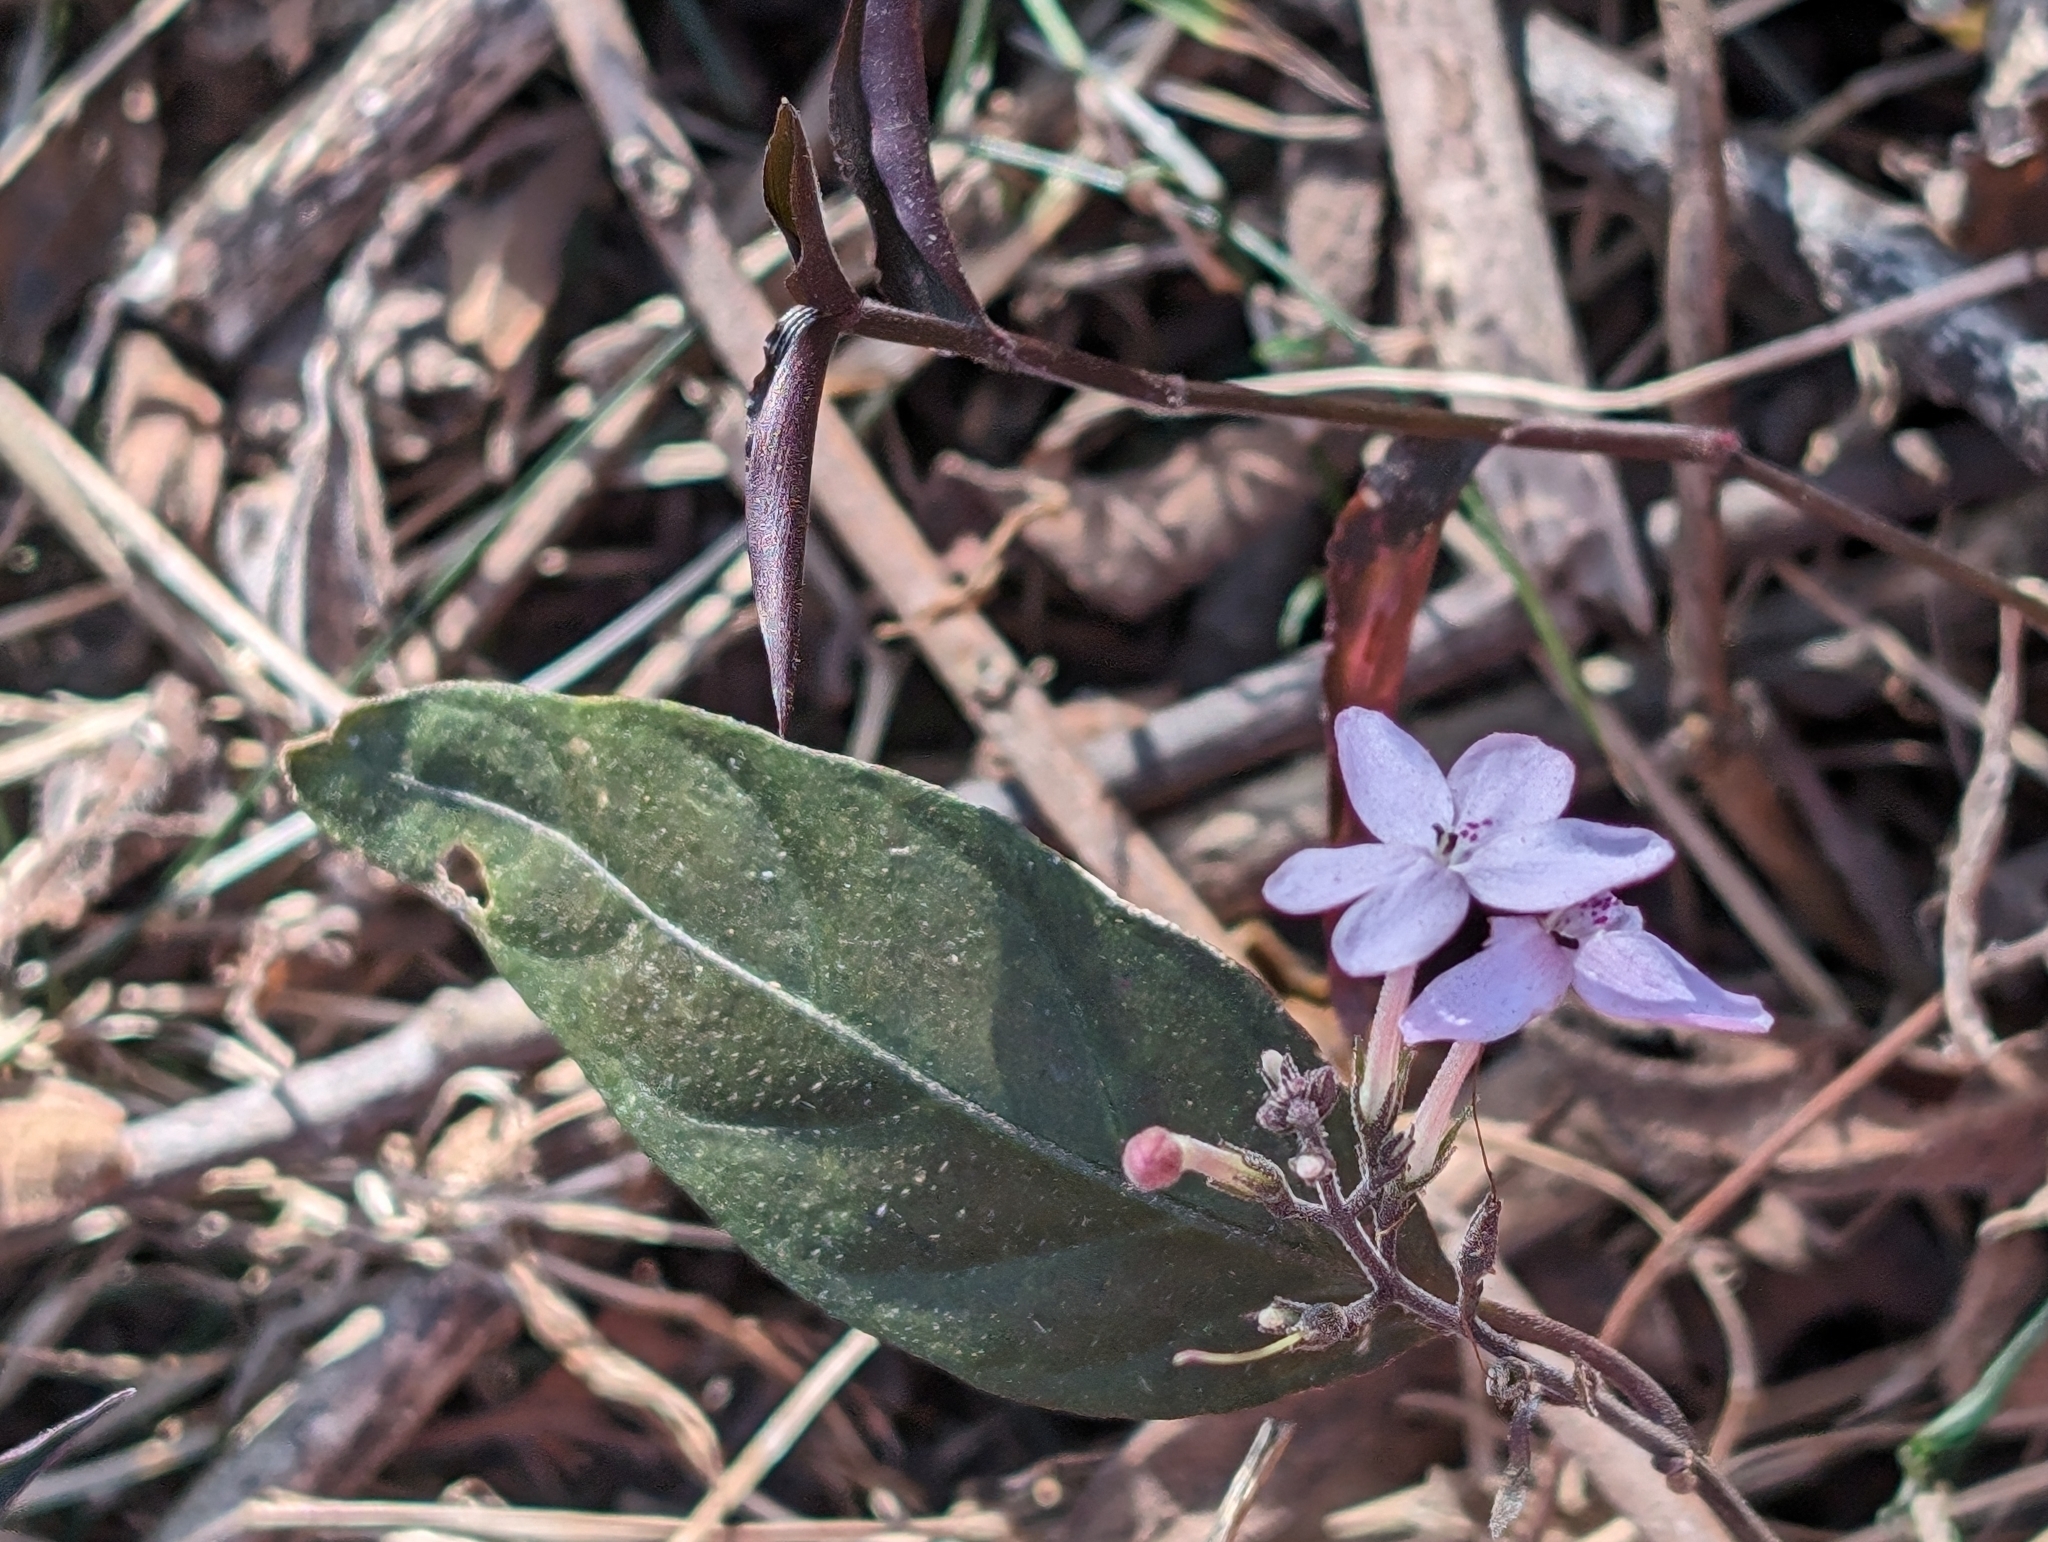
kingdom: Plantae
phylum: Tracheophyta
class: Magnoliopsida
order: Lamiales
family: Acanthaceae
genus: Pseuderanthemum
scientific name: Pseuderanthemum variabile
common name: Night and afternoon
